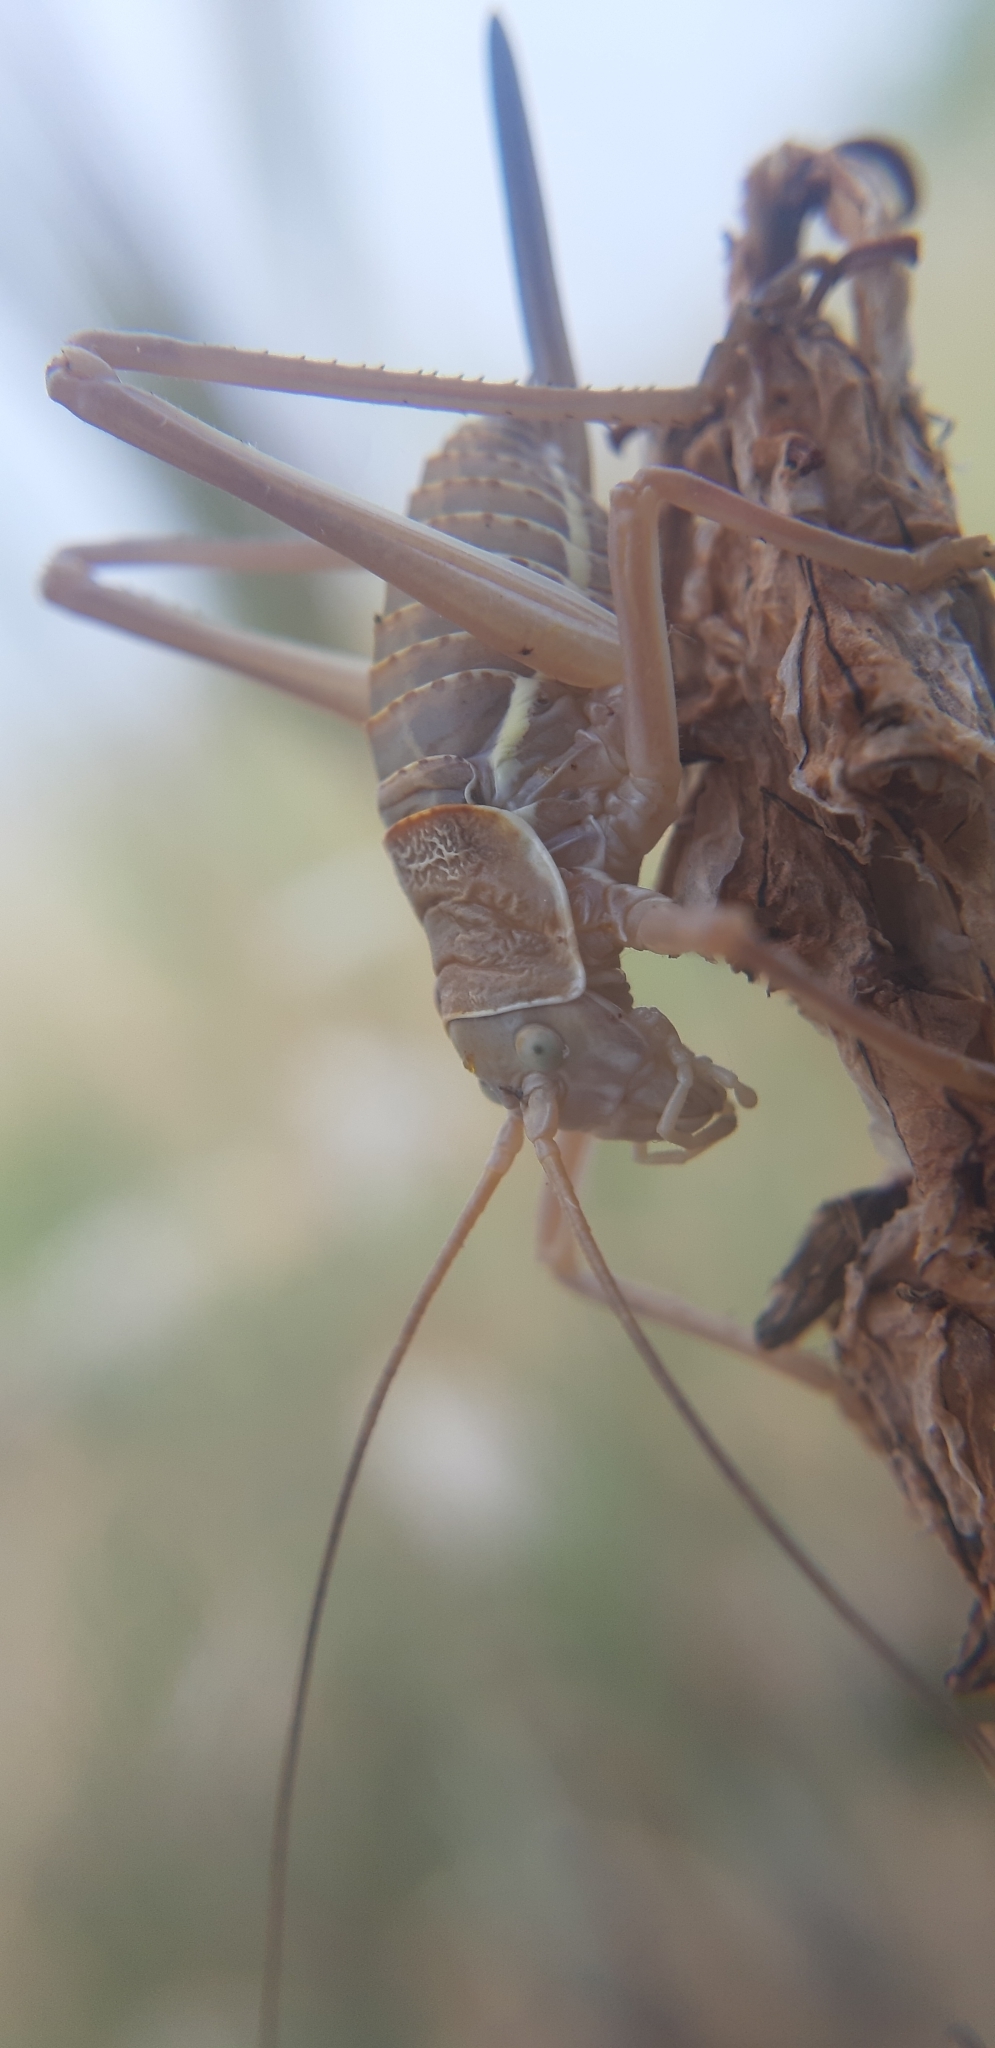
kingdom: Animalia
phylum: Arthropoda
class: Insecta
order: Orthoptera
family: Tettigoniidae
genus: Ephippiger
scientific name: Ephippiger apulus
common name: Apulian saddle bush-cricket
